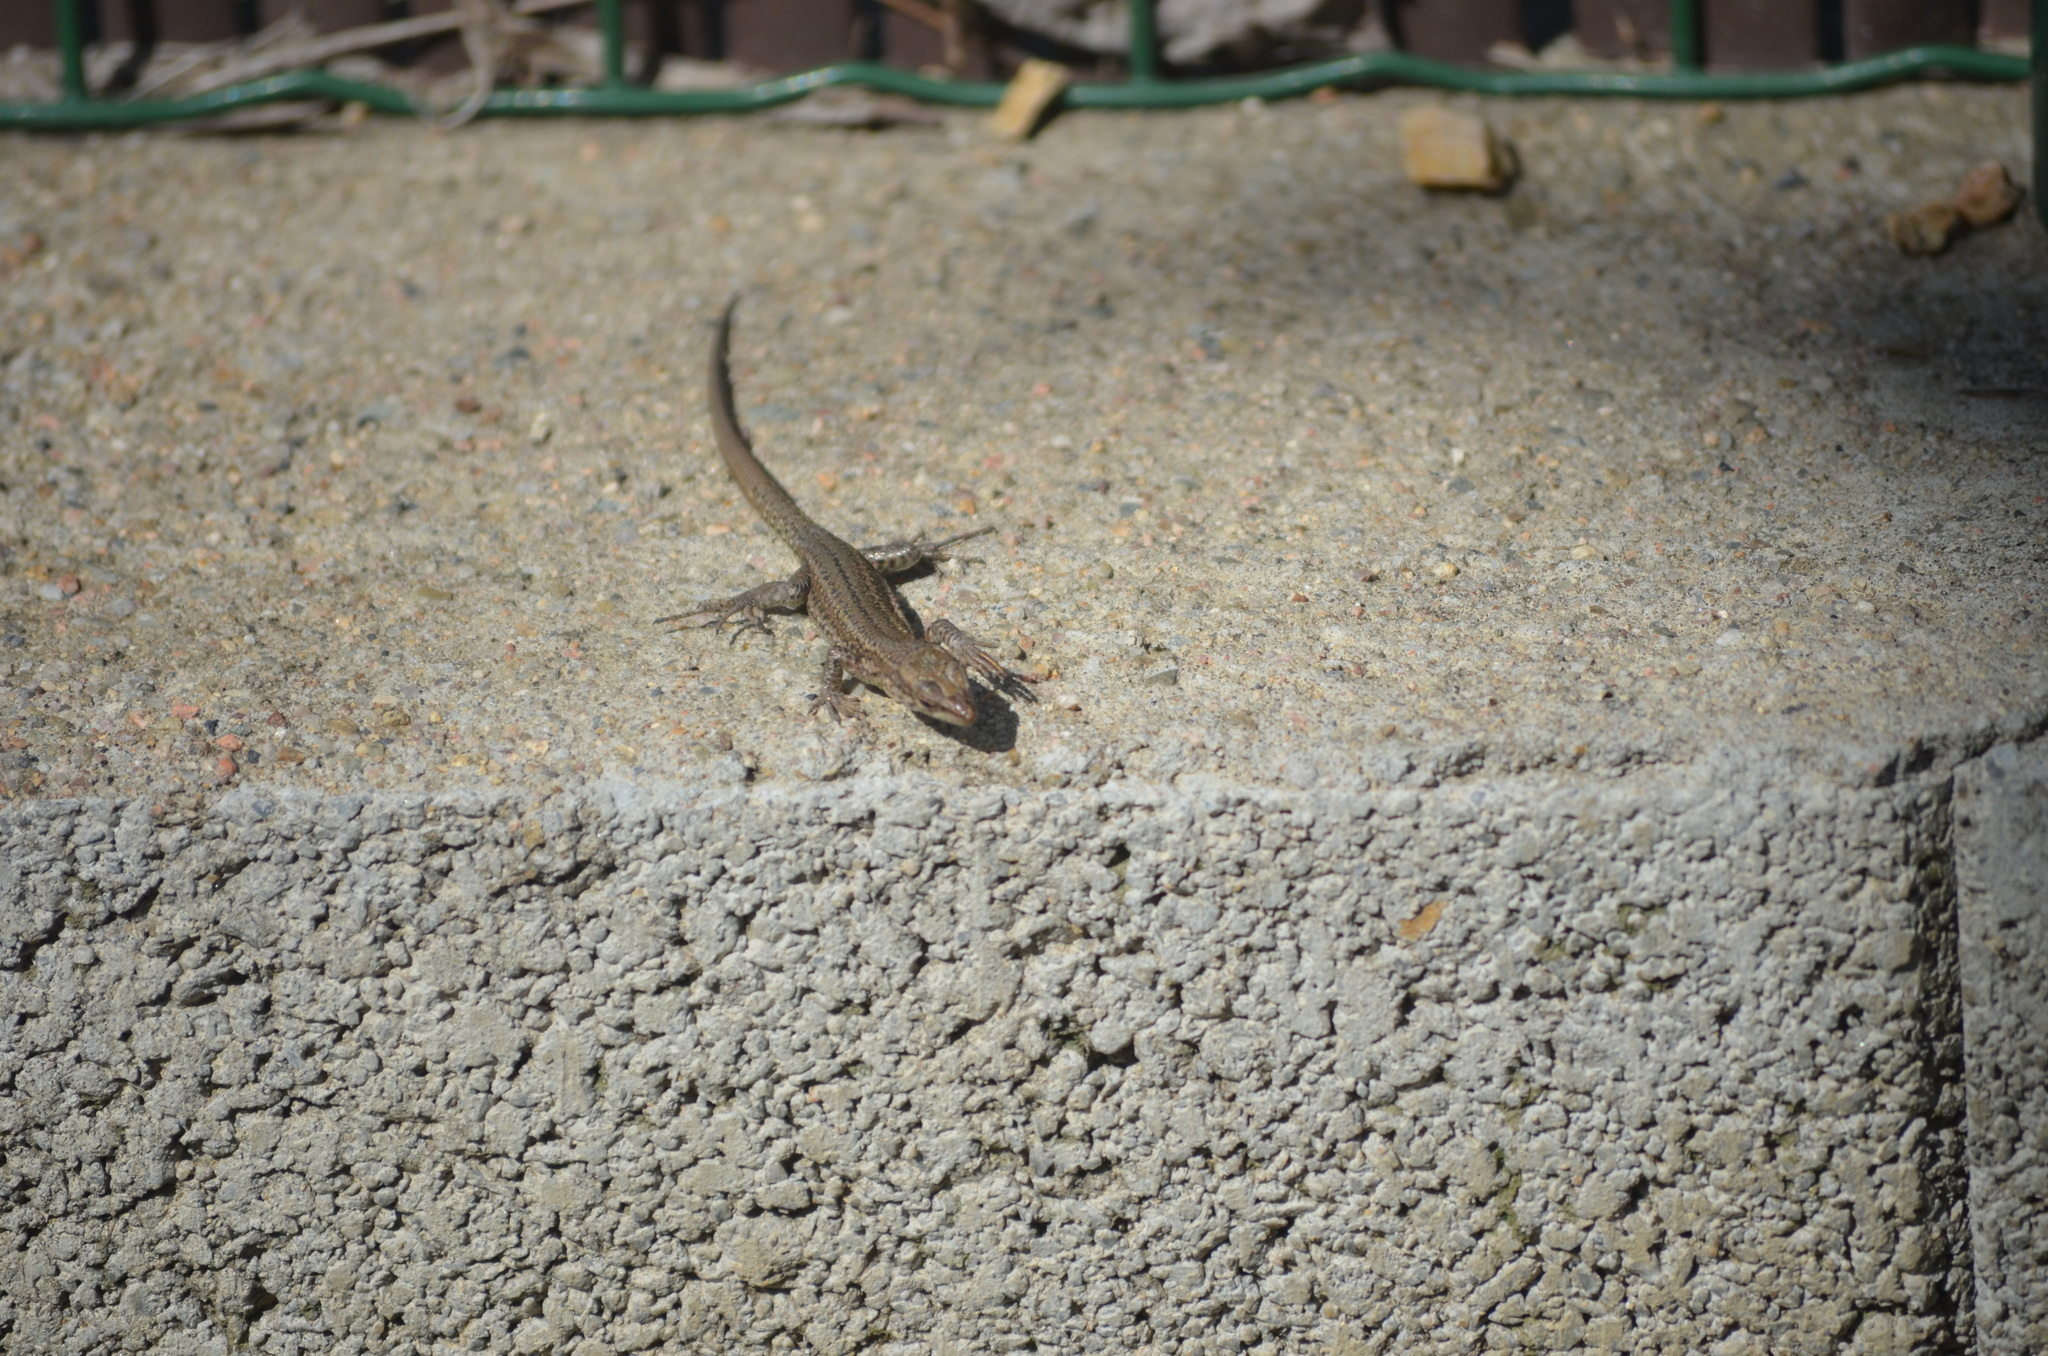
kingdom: Animalia
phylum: Chordata
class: Squamata
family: Lacertidae
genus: Podarcis
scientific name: Podarcis liolepis
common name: Catalonian wall lizard
